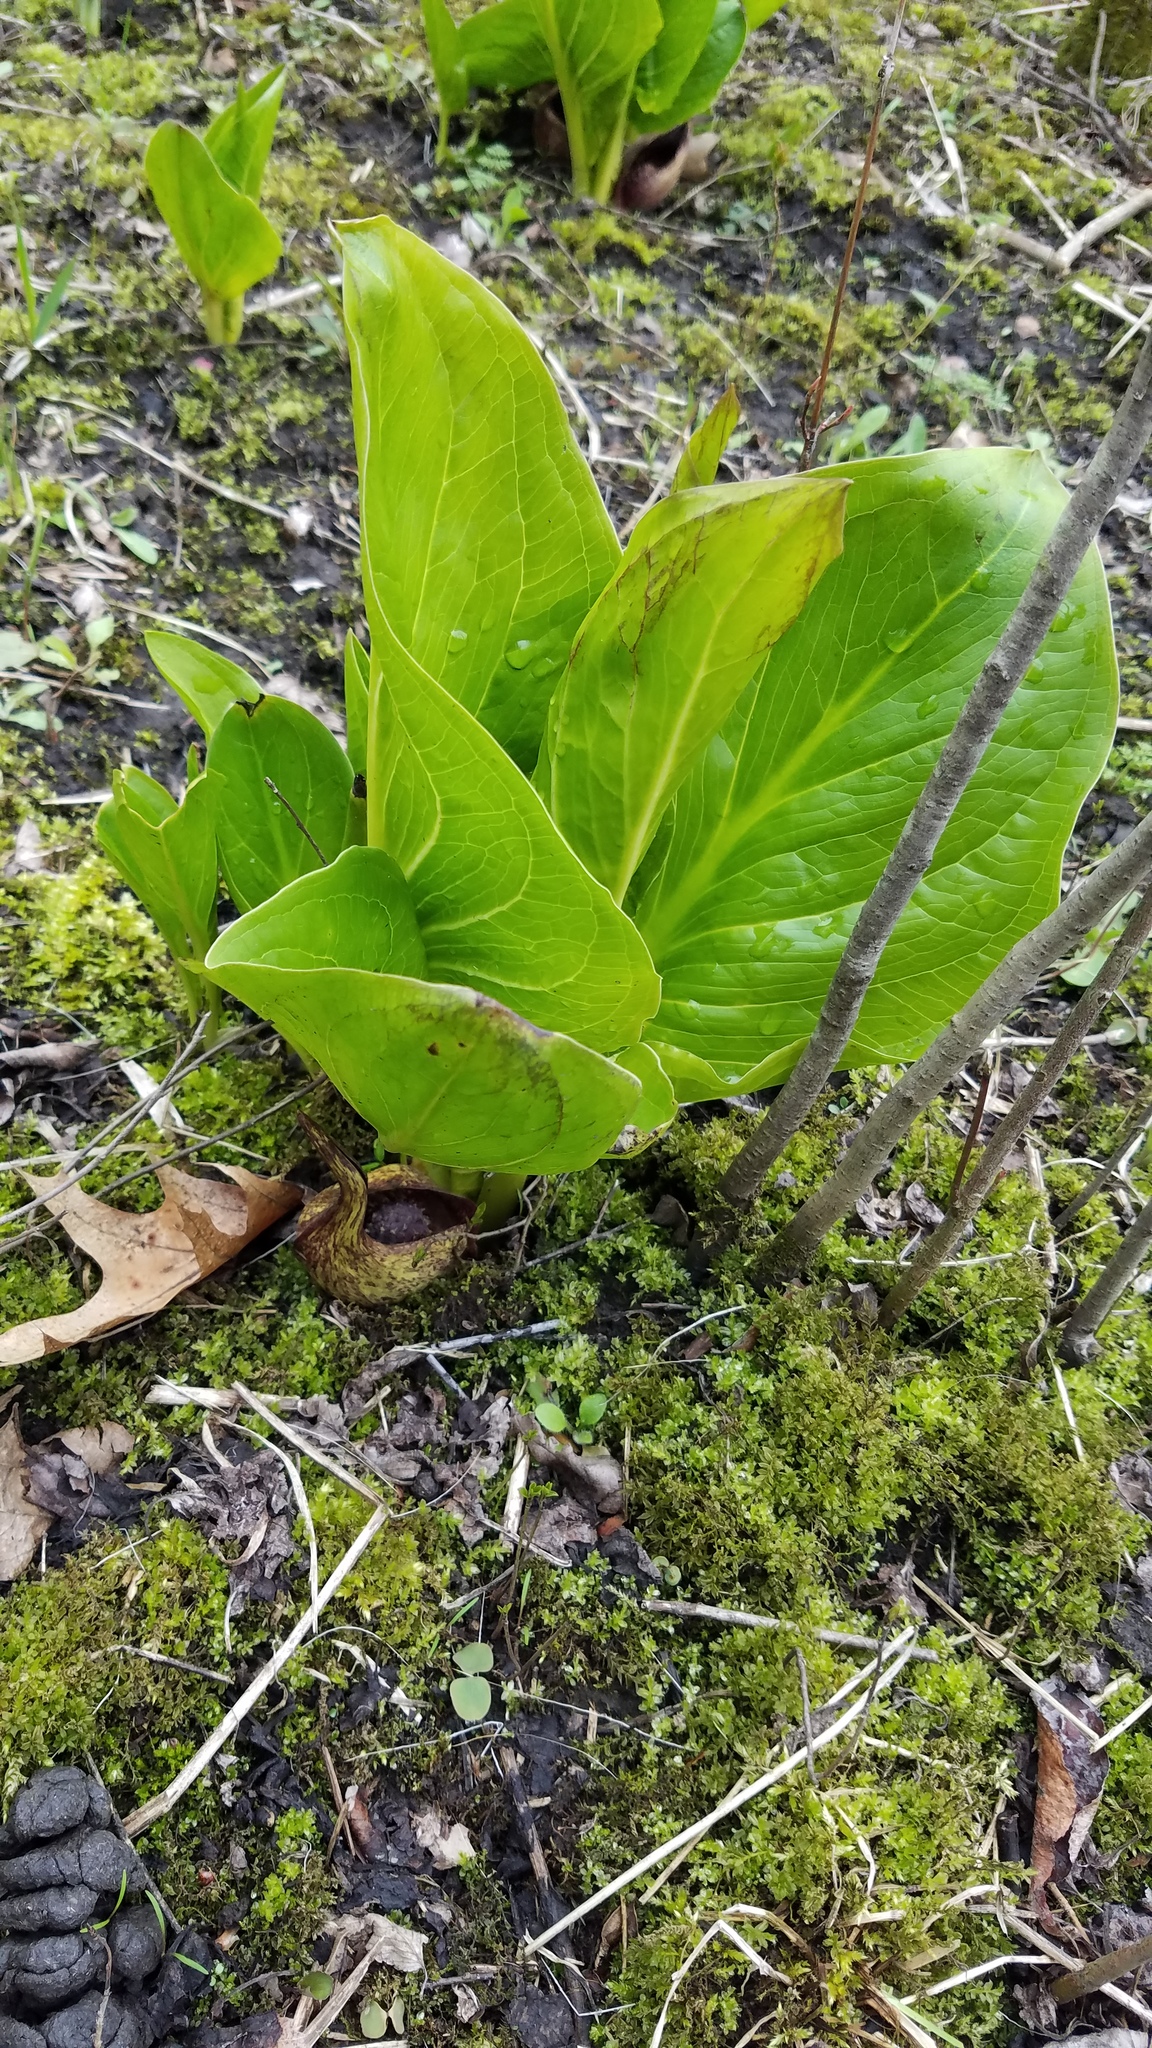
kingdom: Plantae
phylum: Tracheophyta
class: Liliopsida
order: Alismatales
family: Araceae
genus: Symplocarpus
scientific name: Symplocarpus foetidus
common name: Eastern skunk cabbage
